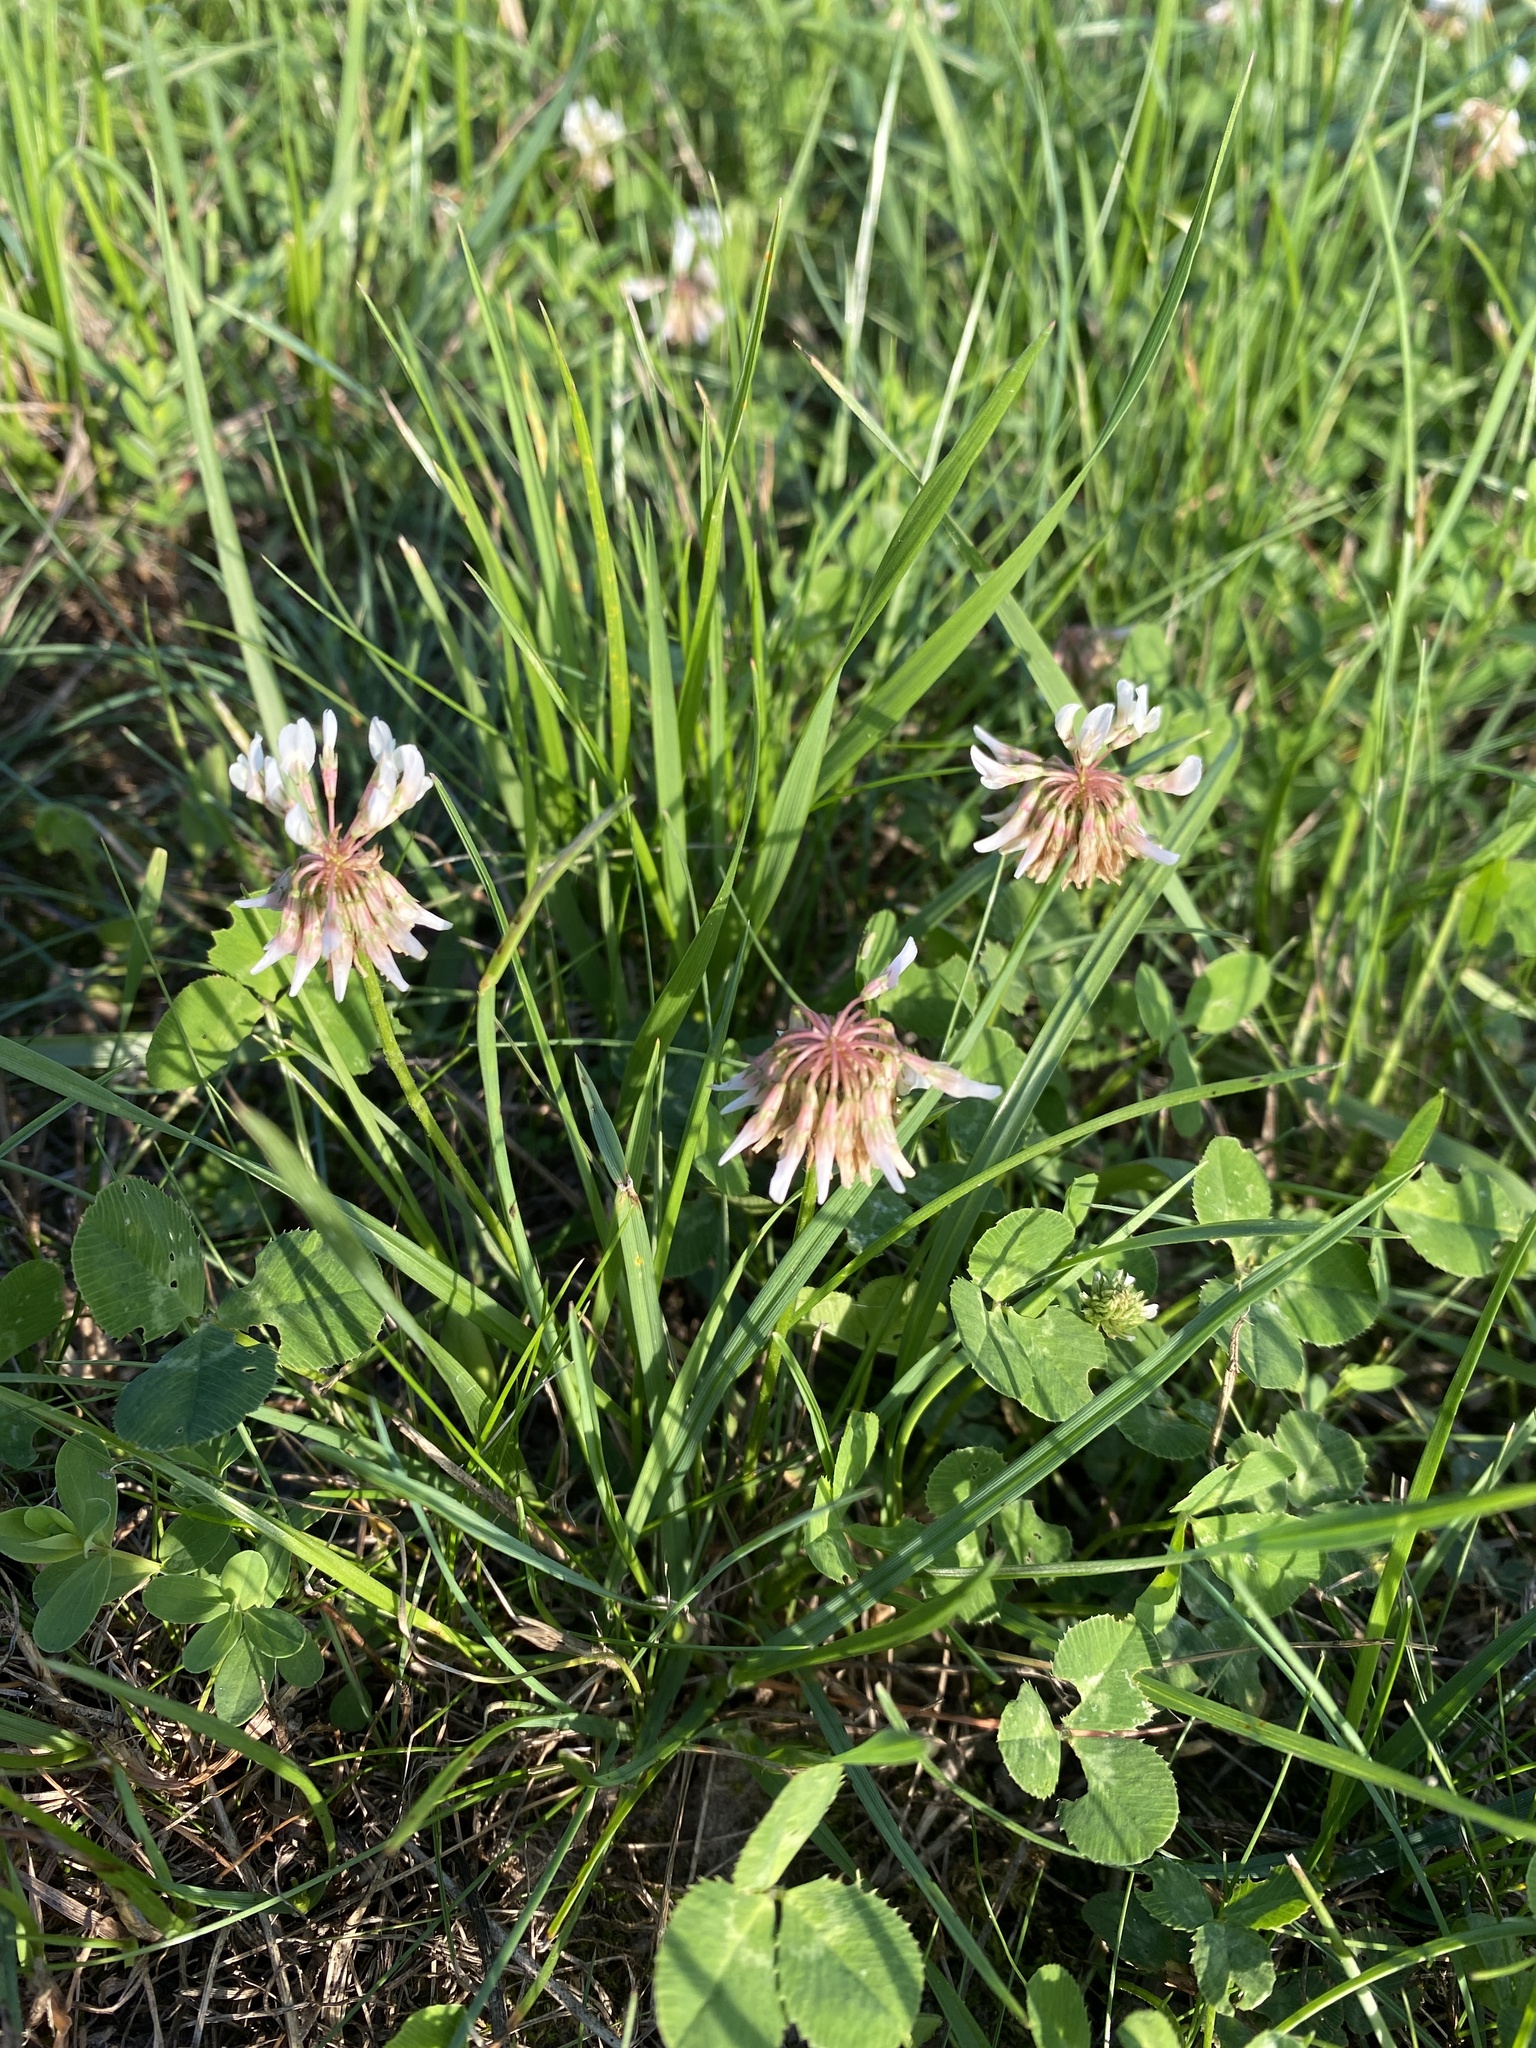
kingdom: Plantae
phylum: Tracheophyta
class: Magnoliopsida
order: Fabales
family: Fabaceae
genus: Trifolium
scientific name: Trifolium repens
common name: White clover
